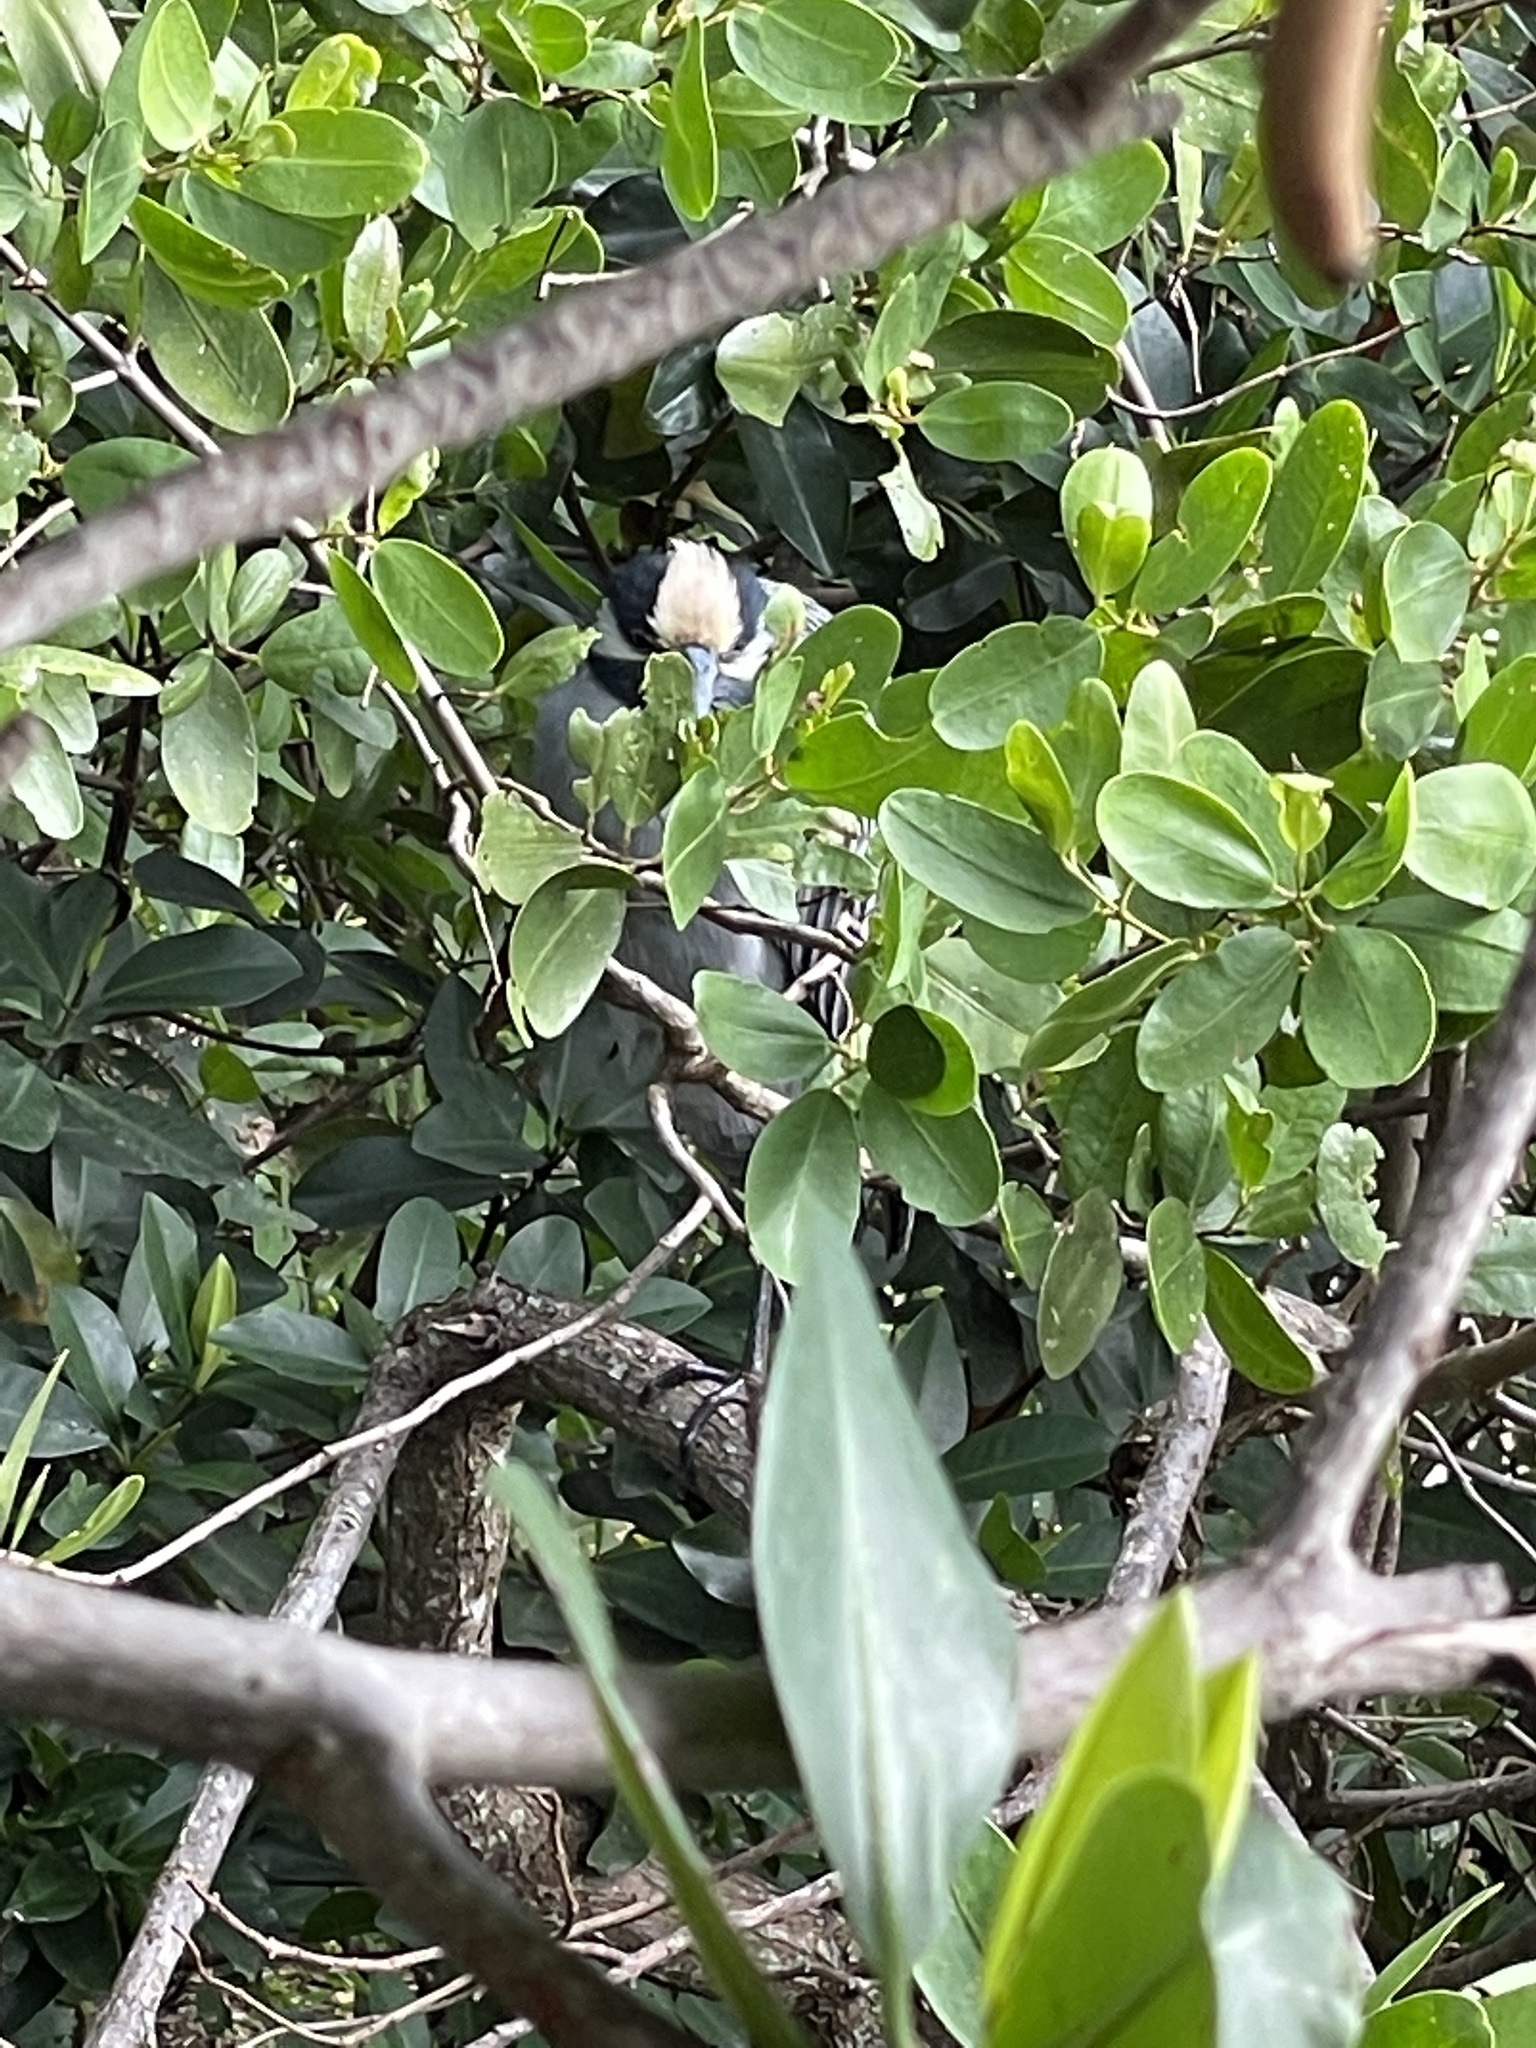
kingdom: Animalia
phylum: Chordata
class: Aves
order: Pelecaniformes
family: Ardeidae
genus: Nyctanassa
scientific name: Nyctanassa violacea
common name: Yellow-crowned night heron
